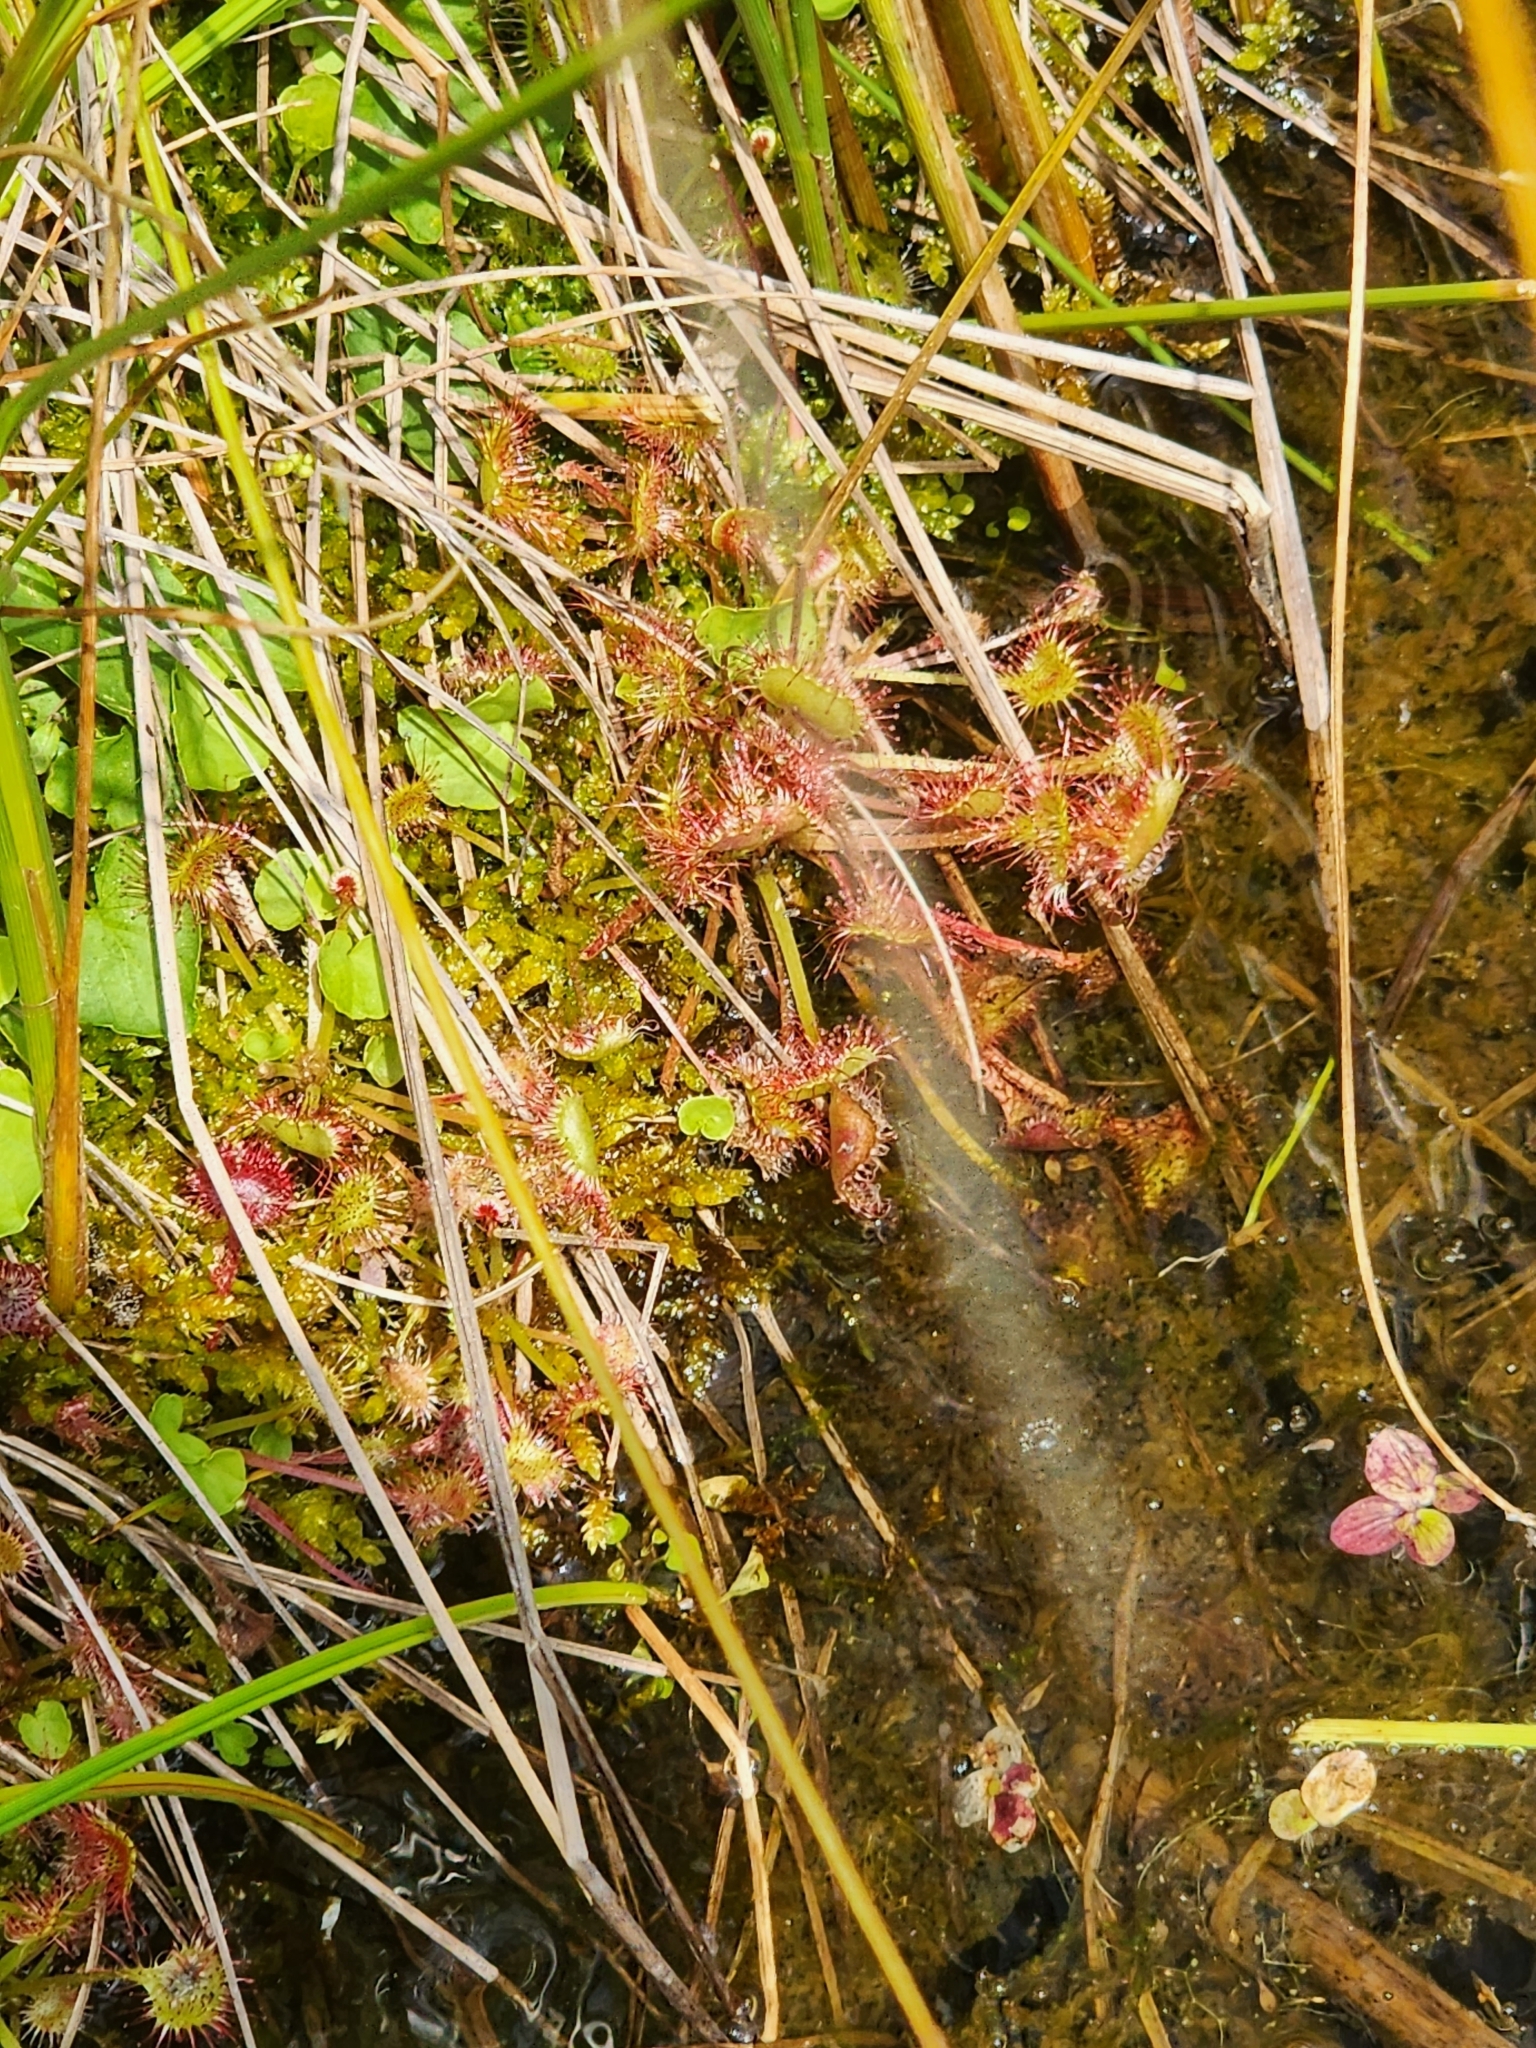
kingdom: Plantae
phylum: Tracheophyta
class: Magnoliopsida
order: Caryophyllales
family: Droseraceae
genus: Drosera
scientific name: Drosera rotundifolia
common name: Round-leaved sundew
